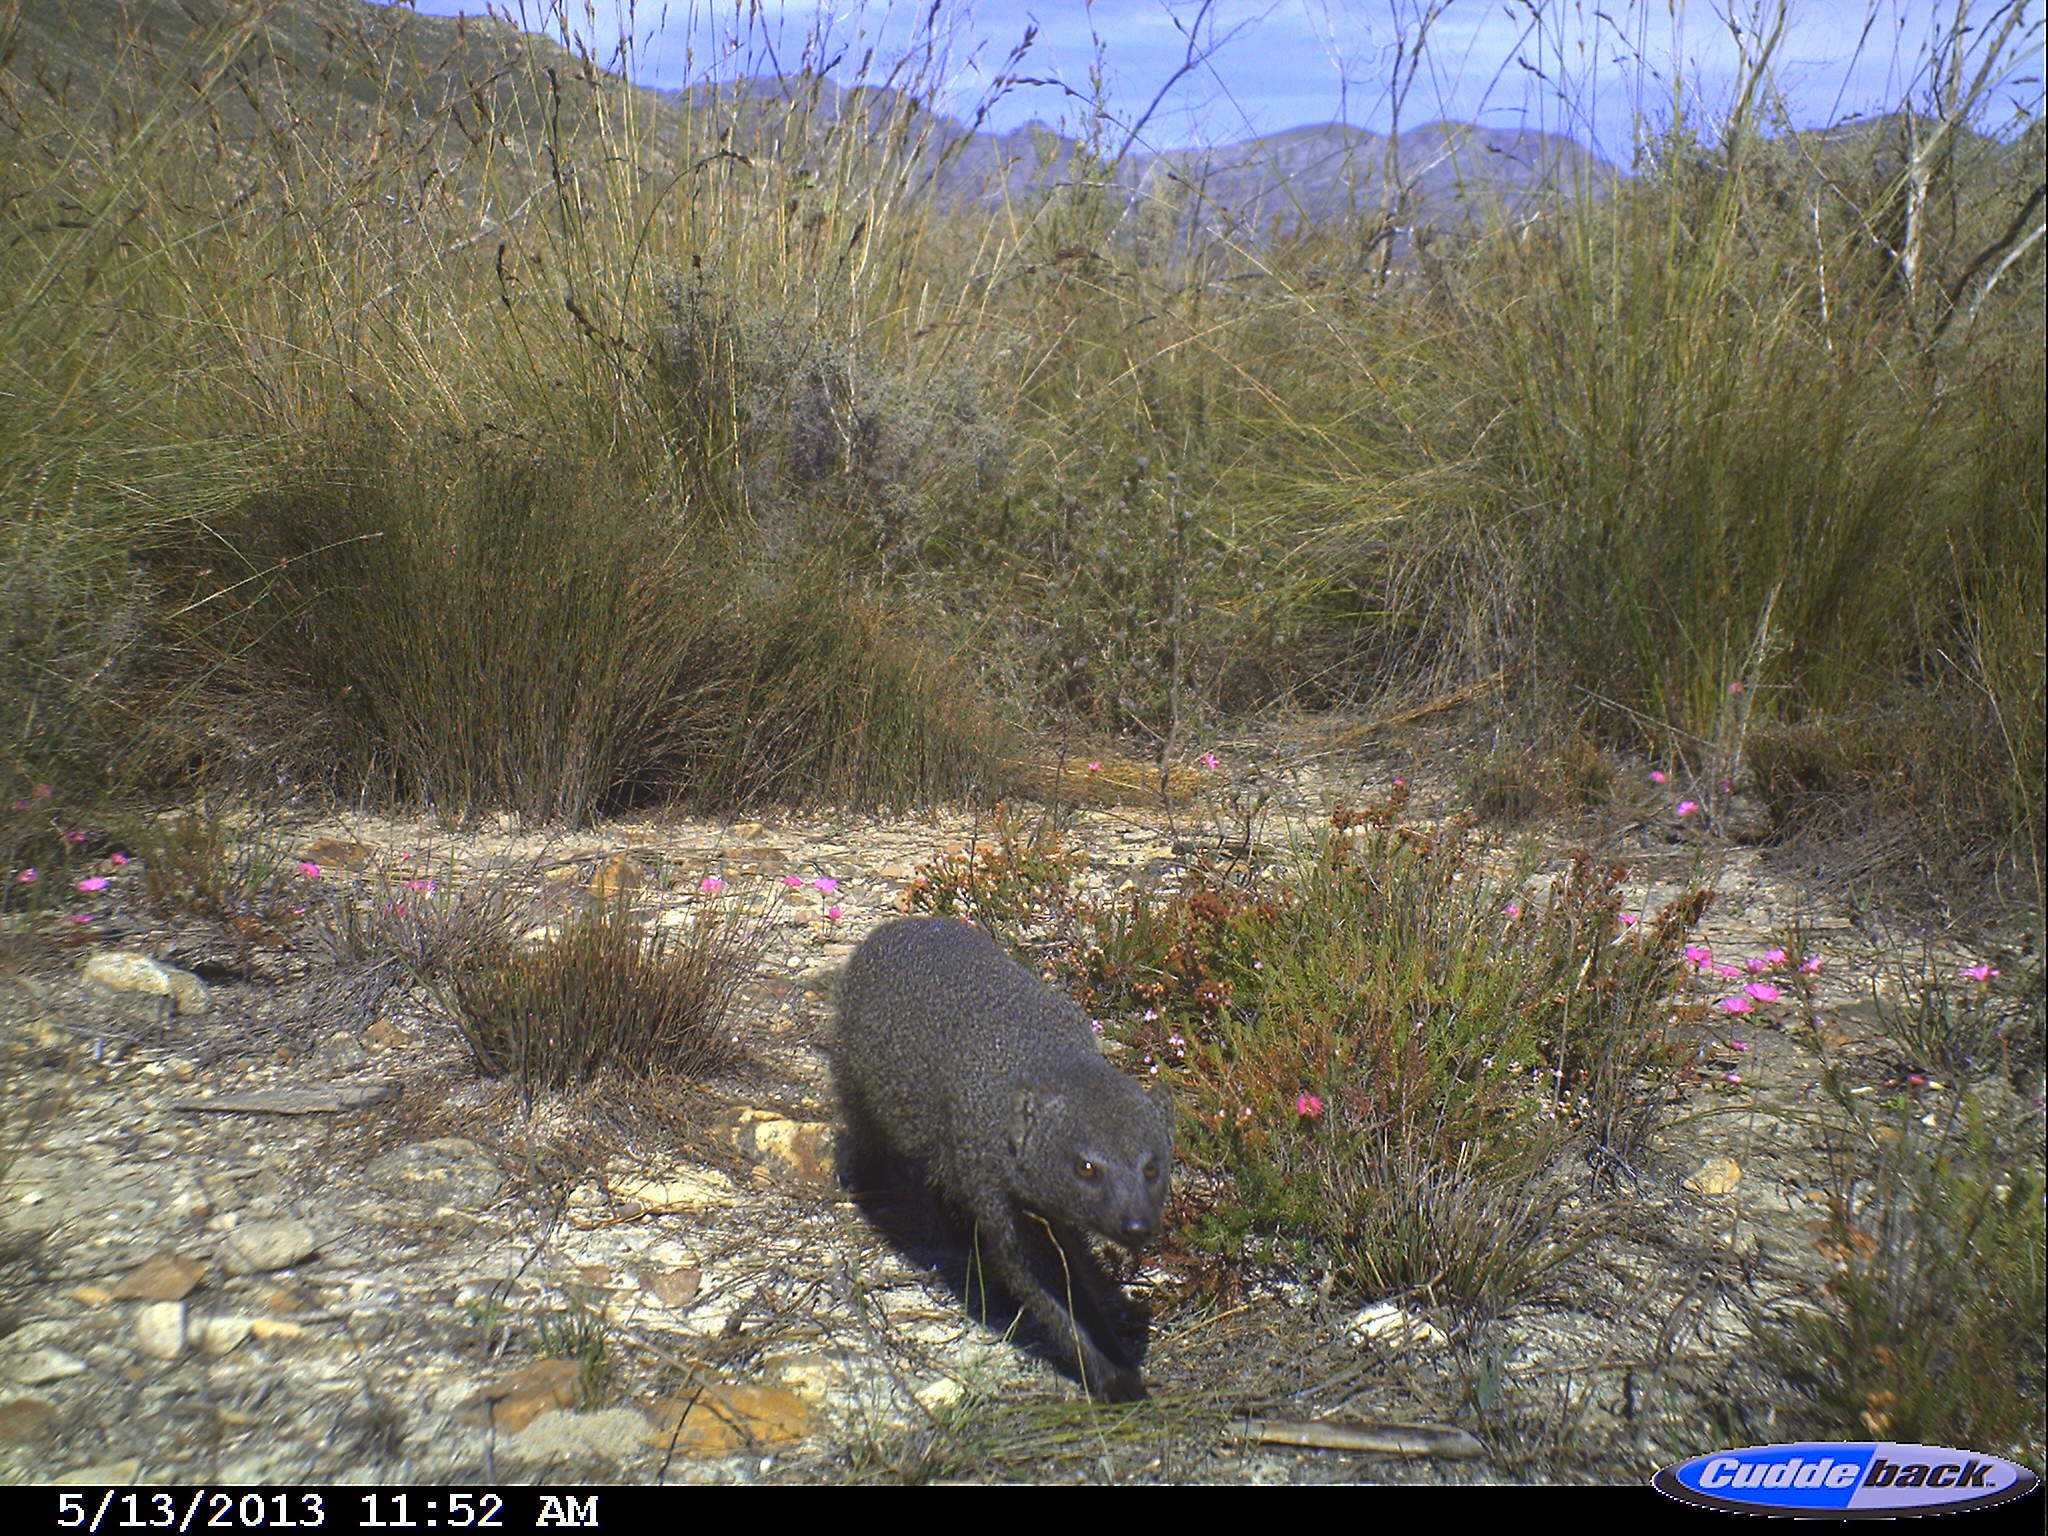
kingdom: Animalia
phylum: Chordata
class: Mammalia
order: Carnivora
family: Herpestidae
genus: Galerella
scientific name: Galerella pulverulenta
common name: Cape gray mongoose
